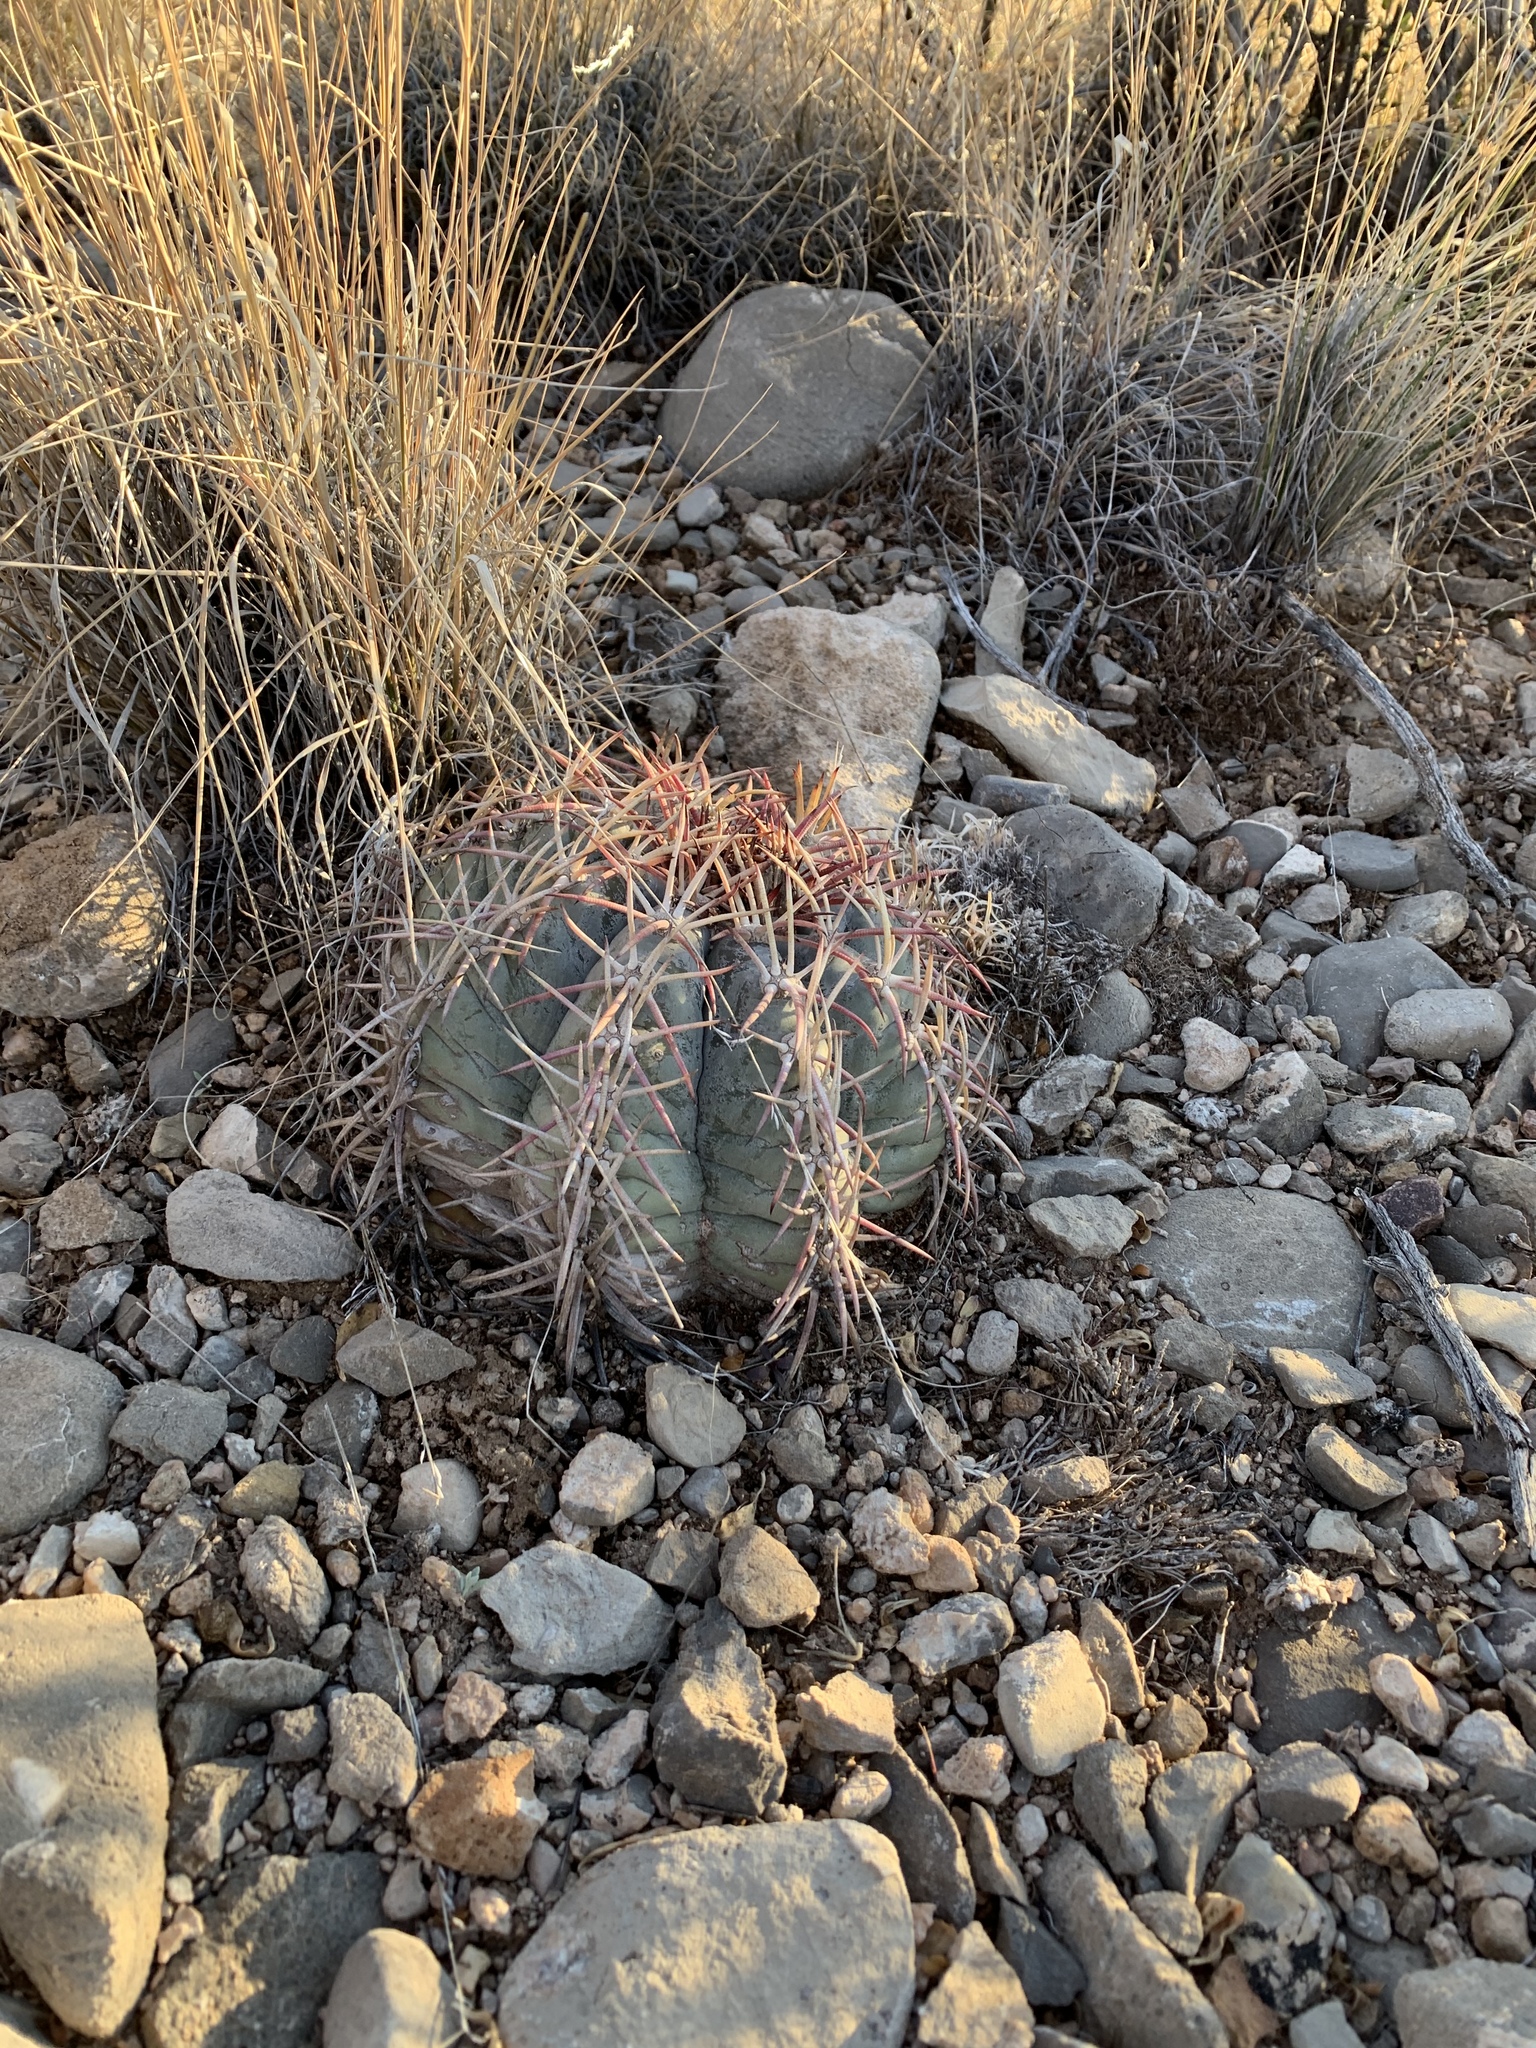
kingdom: Plantae
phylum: Tracheophyta
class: Magnoliopsida
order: Caryophyllales
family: Cactaceae
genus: Echinocactus
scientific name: Echinocactus horizonthalonius
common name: Devilshead
